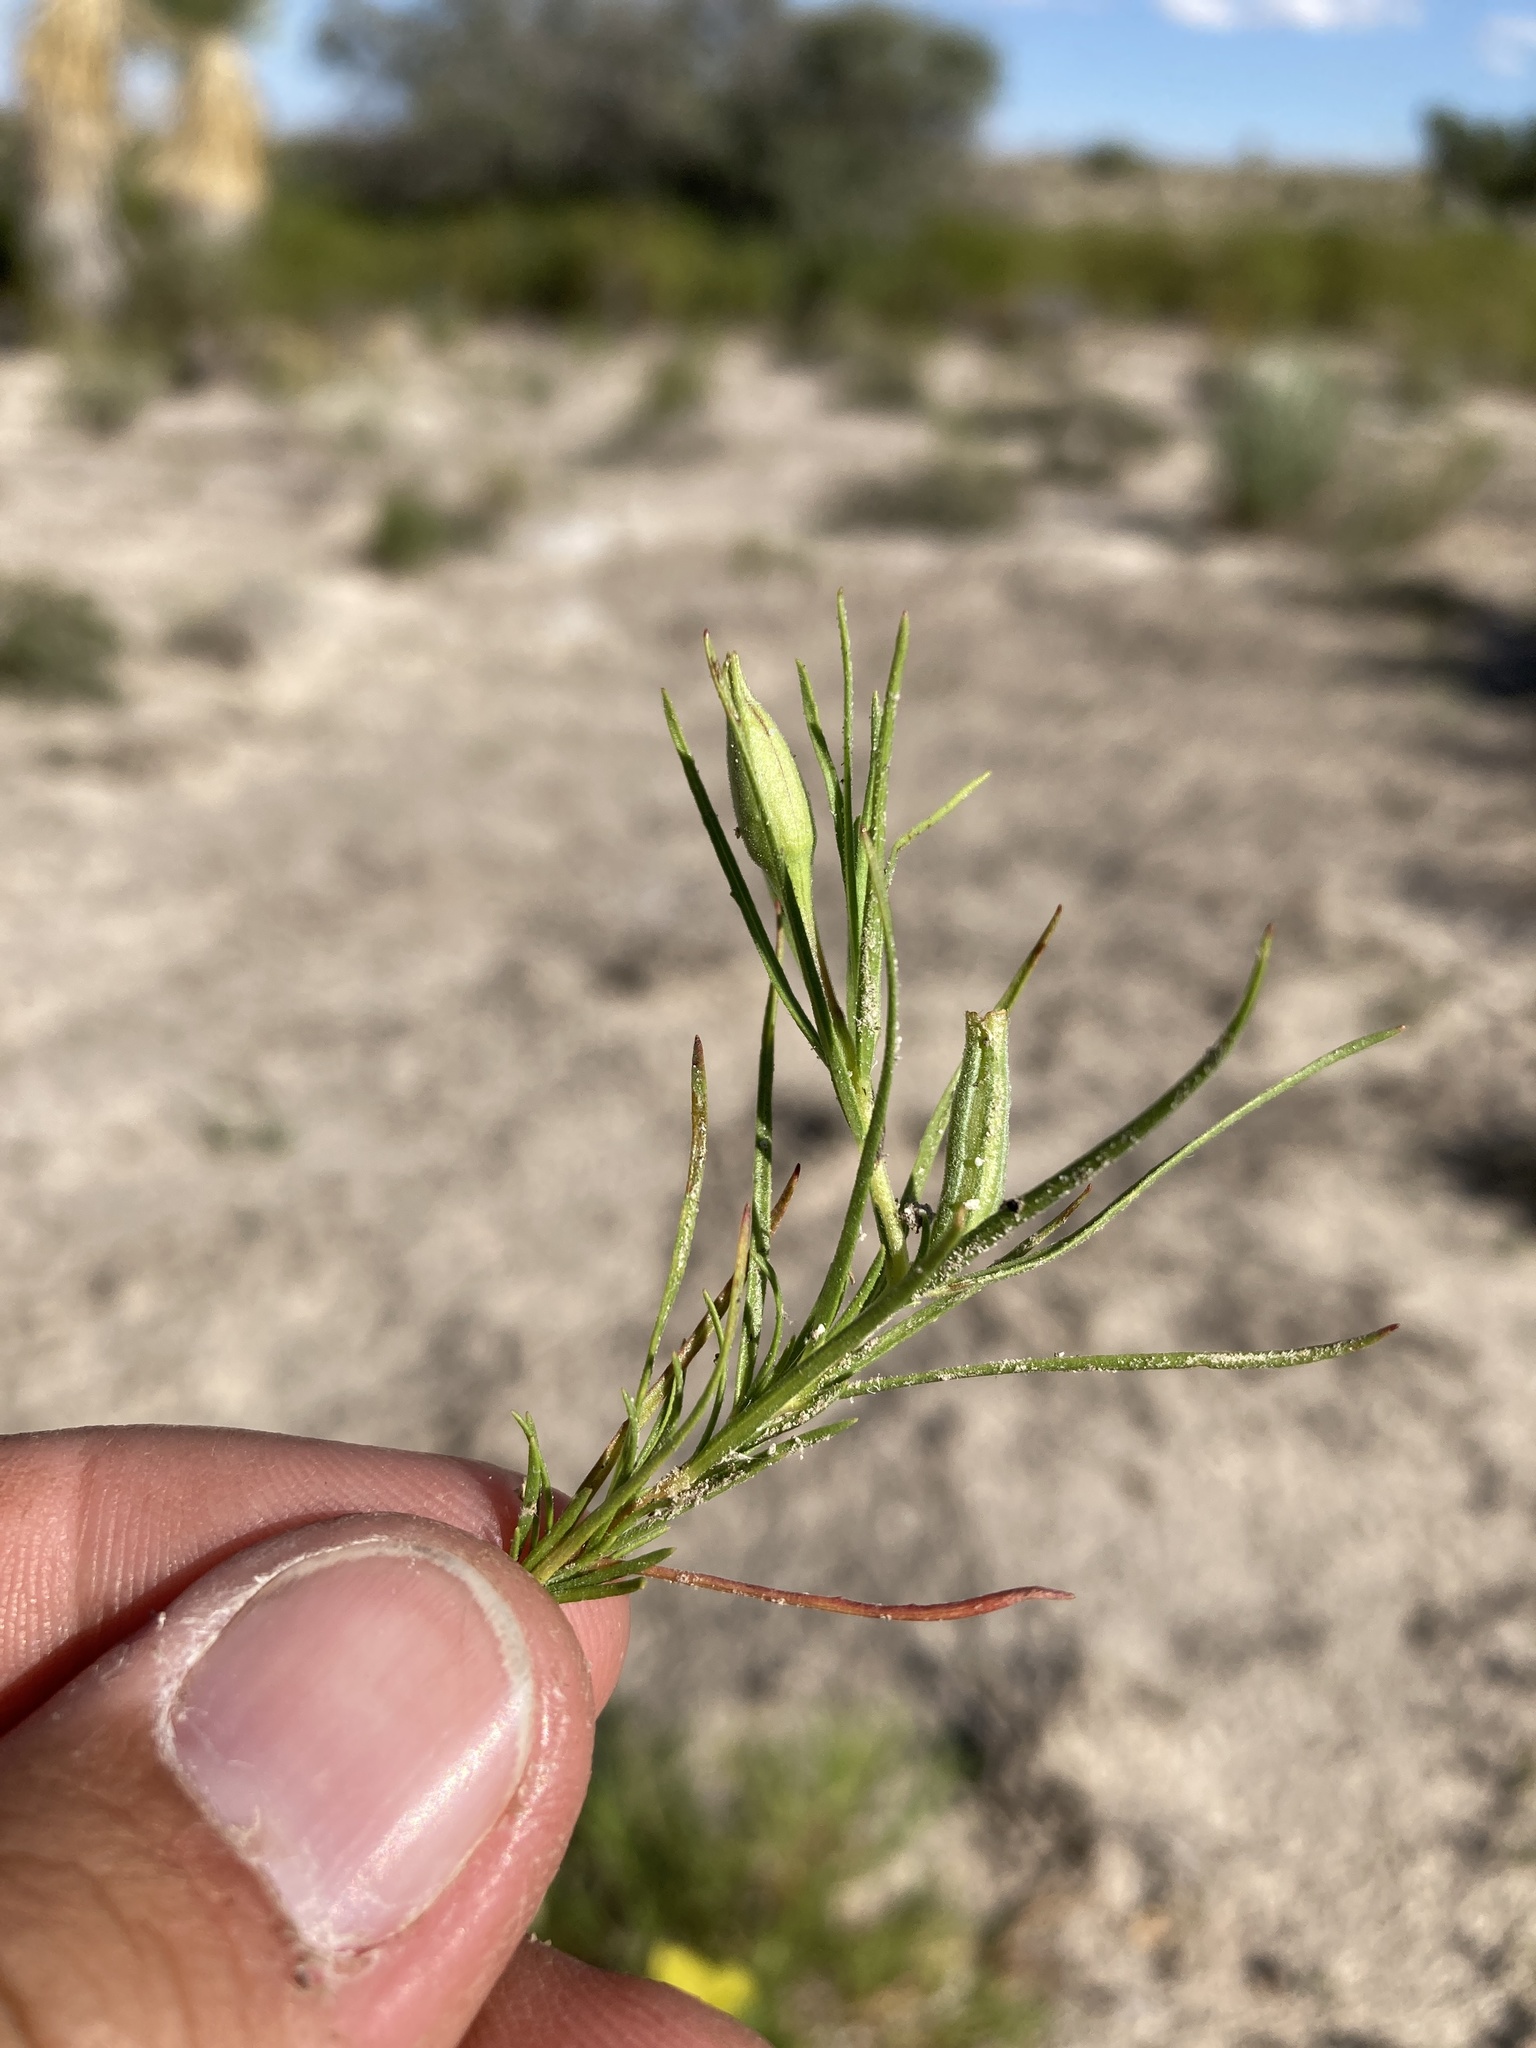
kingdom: Plantae
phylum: Tracheophyta
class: Magnoliopsida
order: Myrtales
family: Onagraceae
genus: Oenothera
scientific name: Oenothera hartwegii
